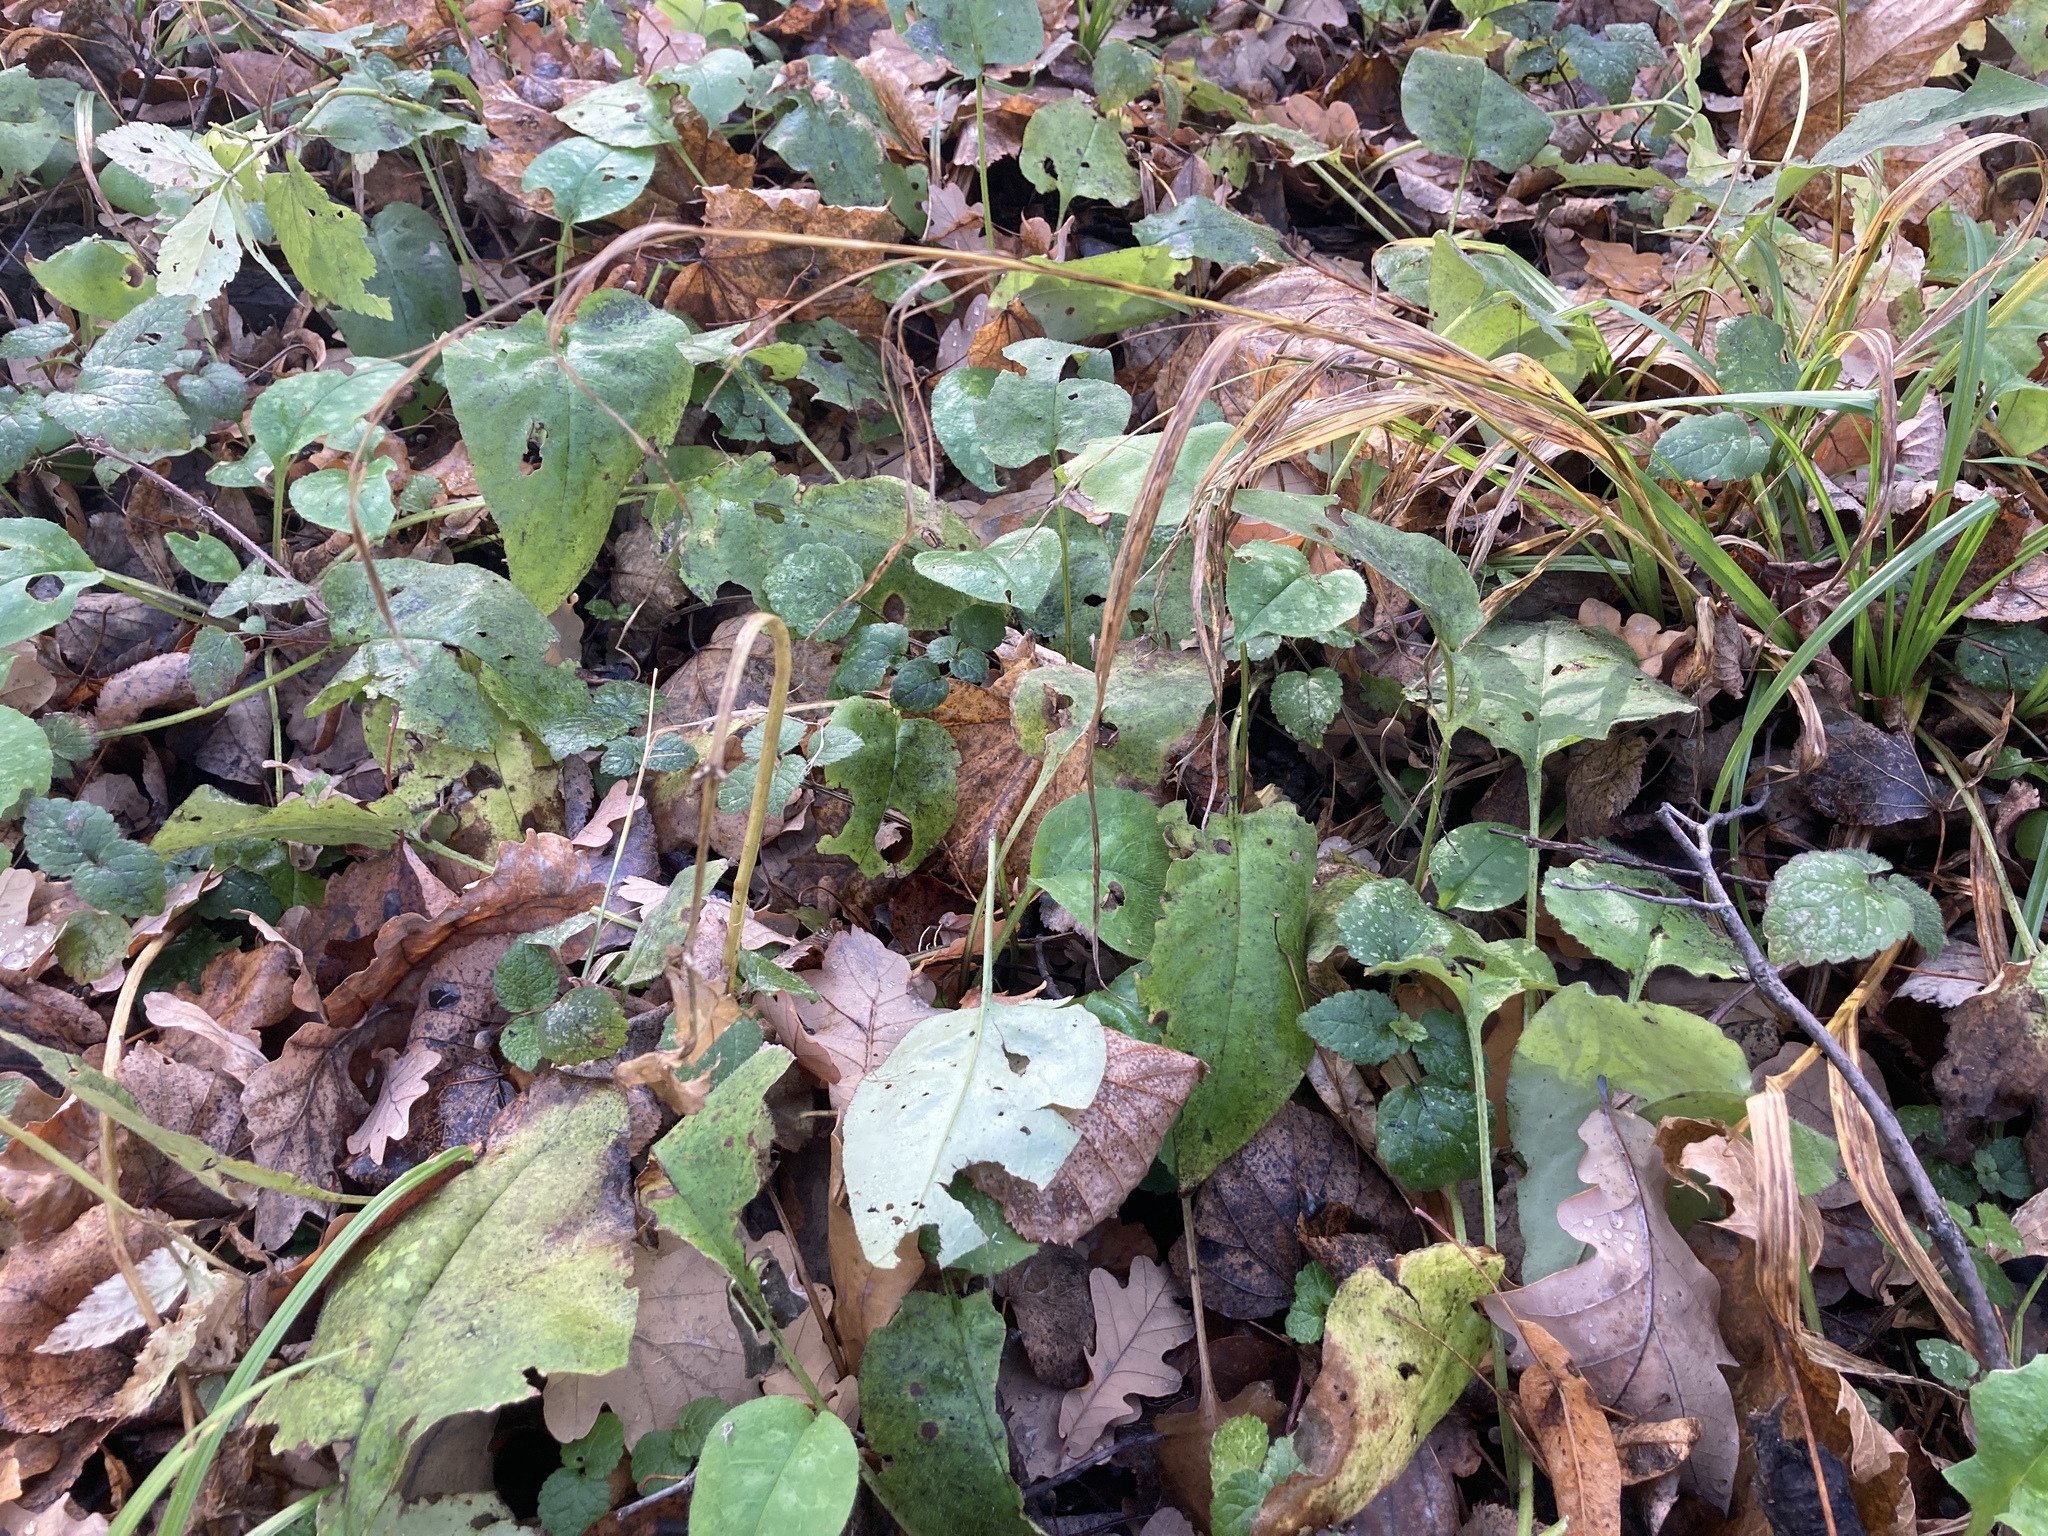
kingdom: Plantae
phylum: Tracheophyta
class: Magnoliopsida
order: Boraginales
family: Boraginaceae
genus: Pulmonaria
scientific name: Pulmonaria obscura
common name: Suffolk lungwort
